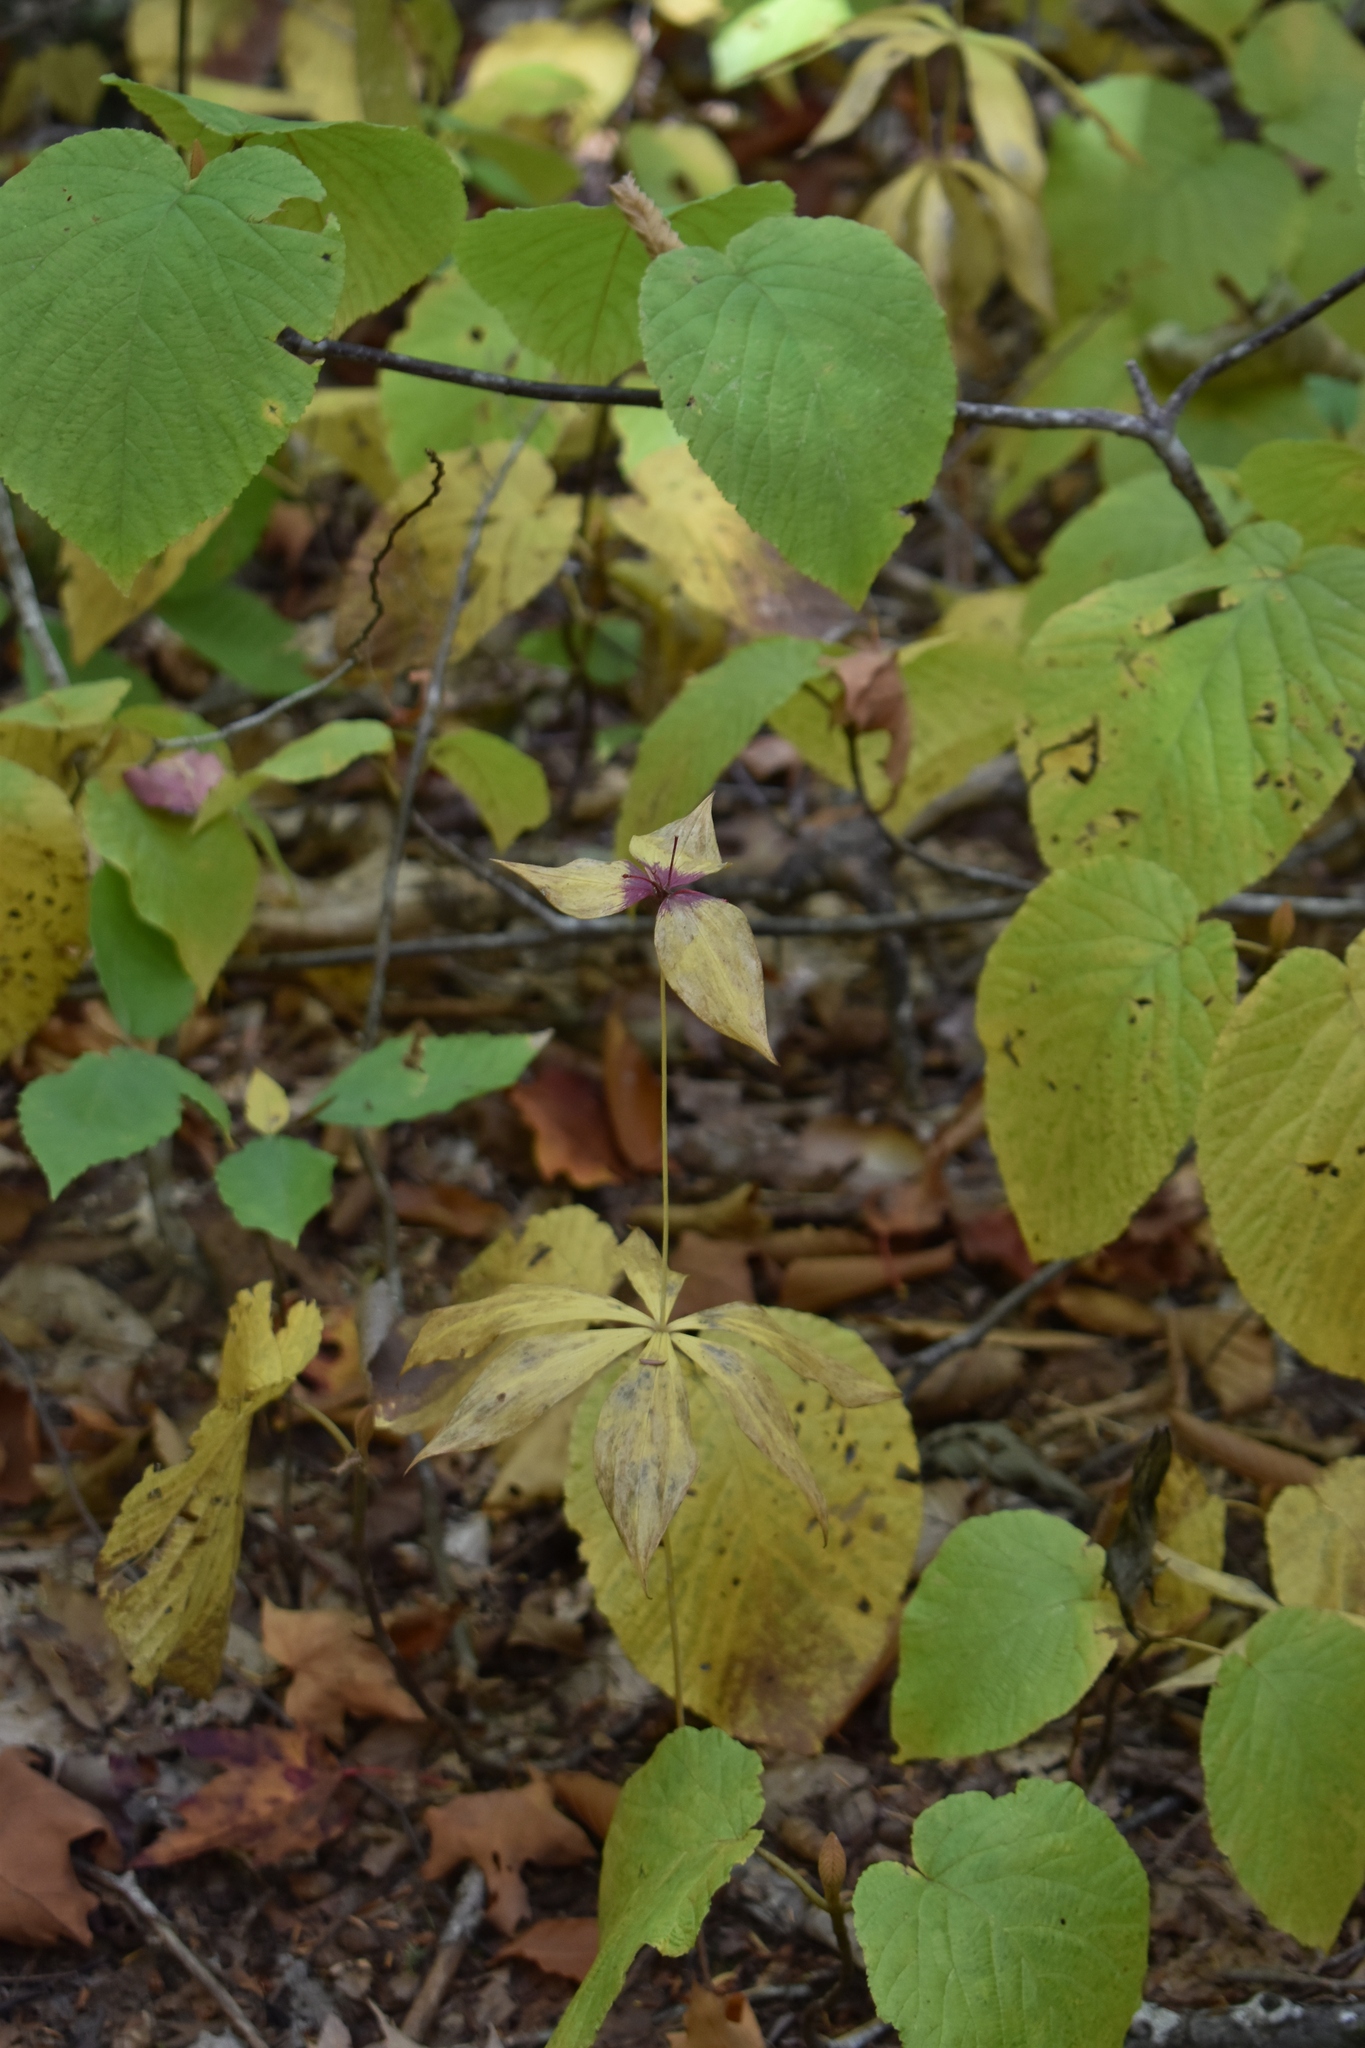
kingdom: Plantae
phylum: Tracheophyta
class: Liliopsida
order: Liliales
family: Liliaceae
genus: Medeola
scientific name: Medeola virginiana
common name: Indian cucumber-root
